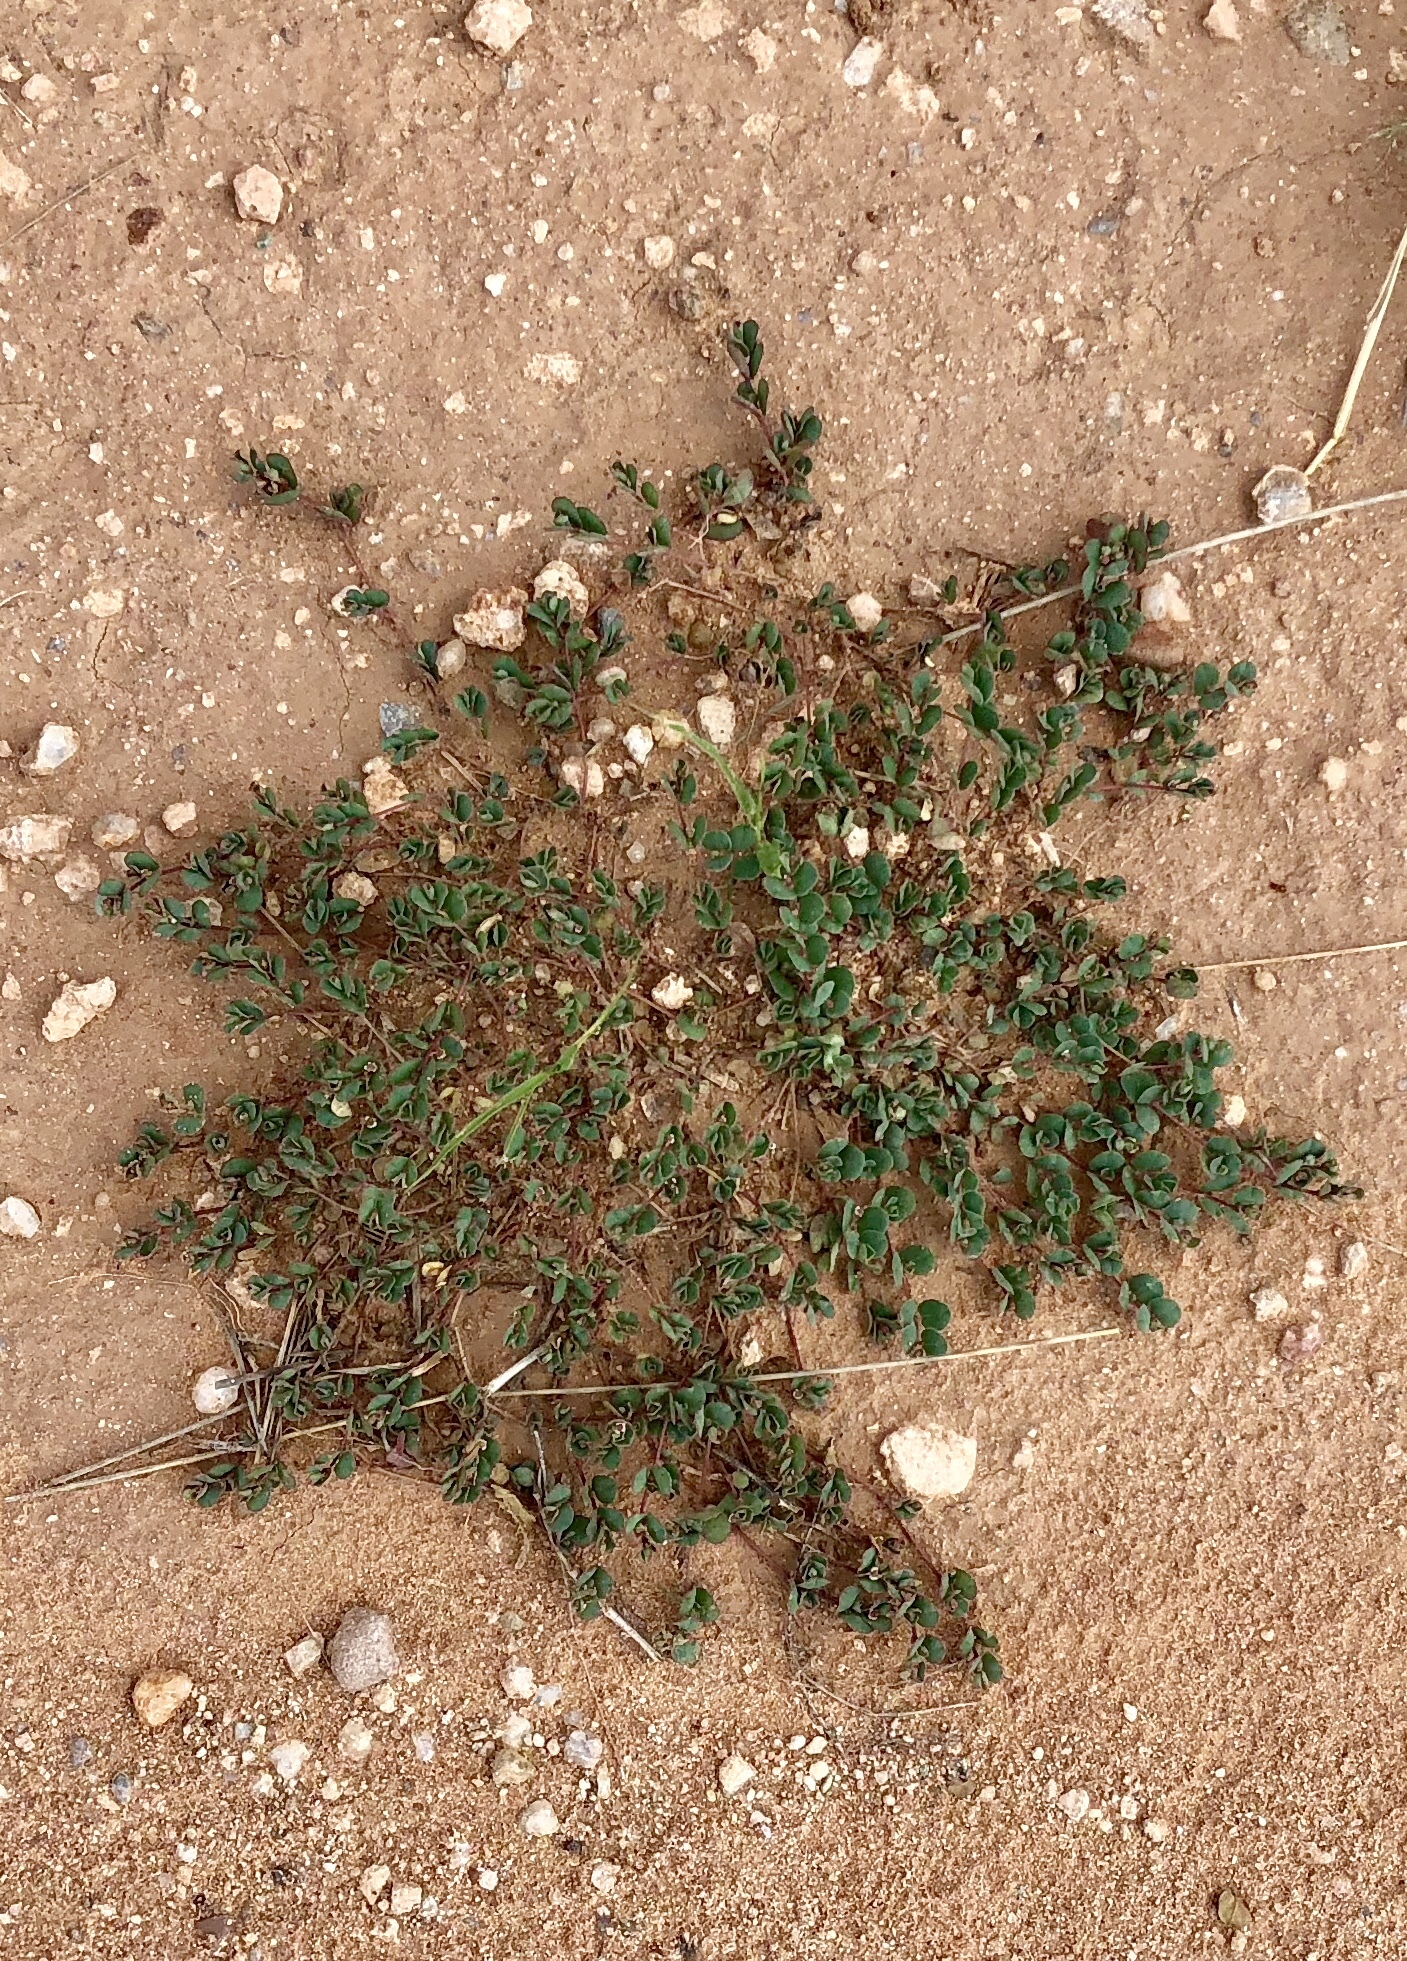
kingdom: Plantae
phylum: Tracheophyta
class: Magnoliopsida
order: Malpighiales
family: Euphorbiaceae
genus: Euphorbia
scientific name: Euphorbia albomarginata
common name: Whitemargin sandmat
